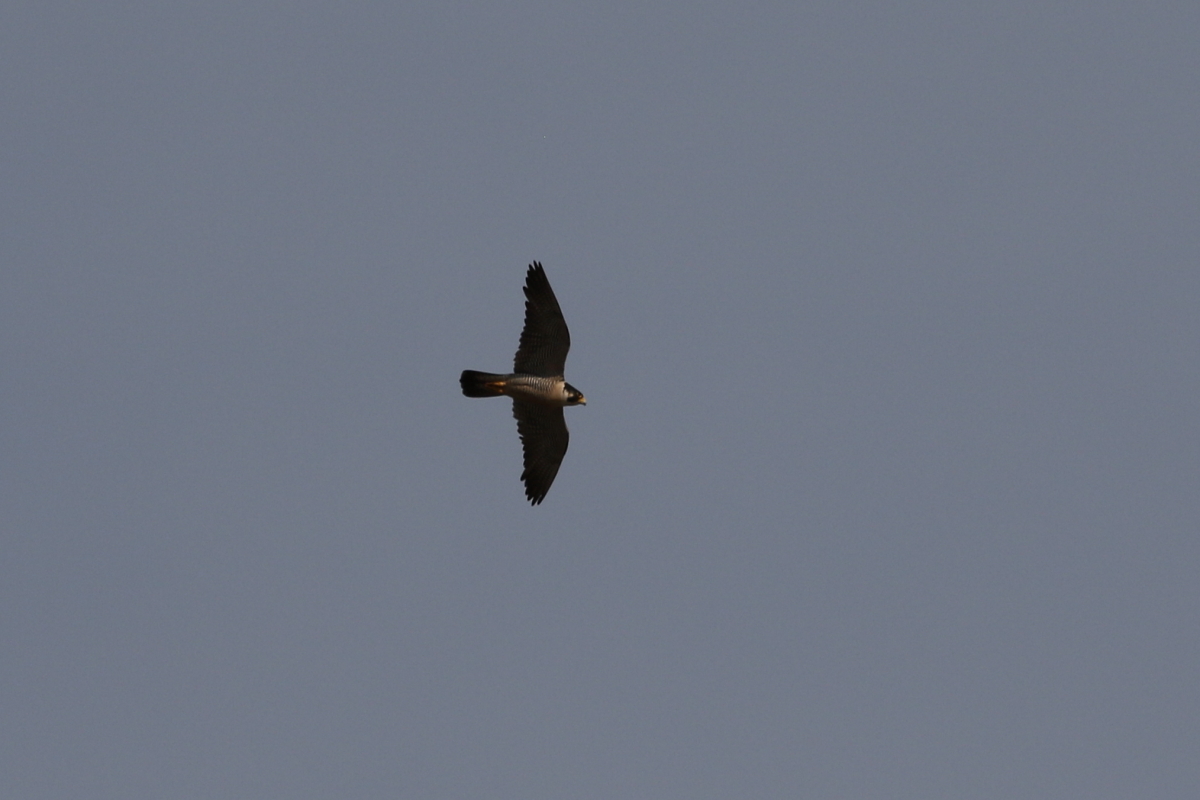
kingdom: Animalia
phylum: Chordata
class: Aves
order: Falconiformes
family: Falconidae
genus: Falco
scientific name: Falco peregrinus
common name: Peregrine falcon
